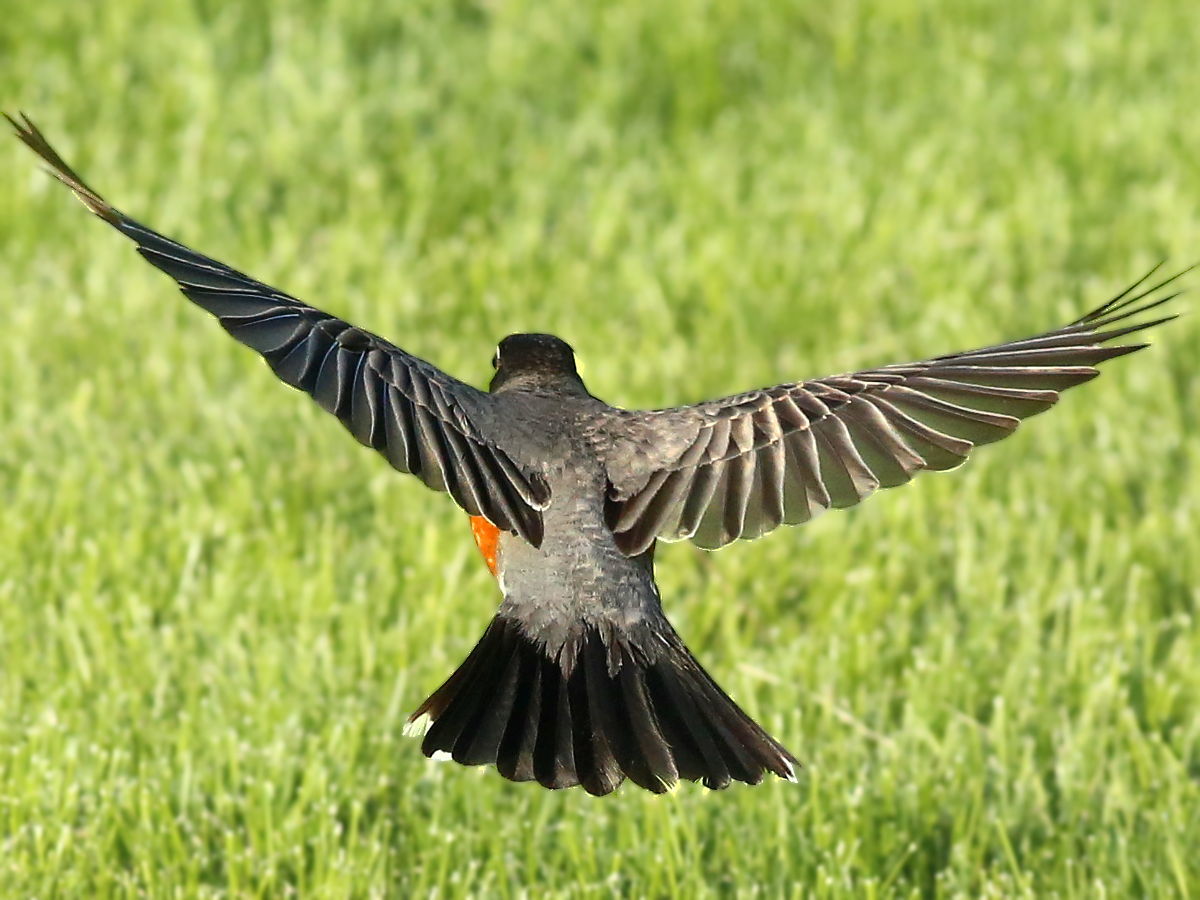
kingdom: Animalia
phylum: Chordata
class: Aves
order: Passeriformes
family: Turdidae
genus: Turdus
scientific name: Turdus migratorius
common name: American robin
